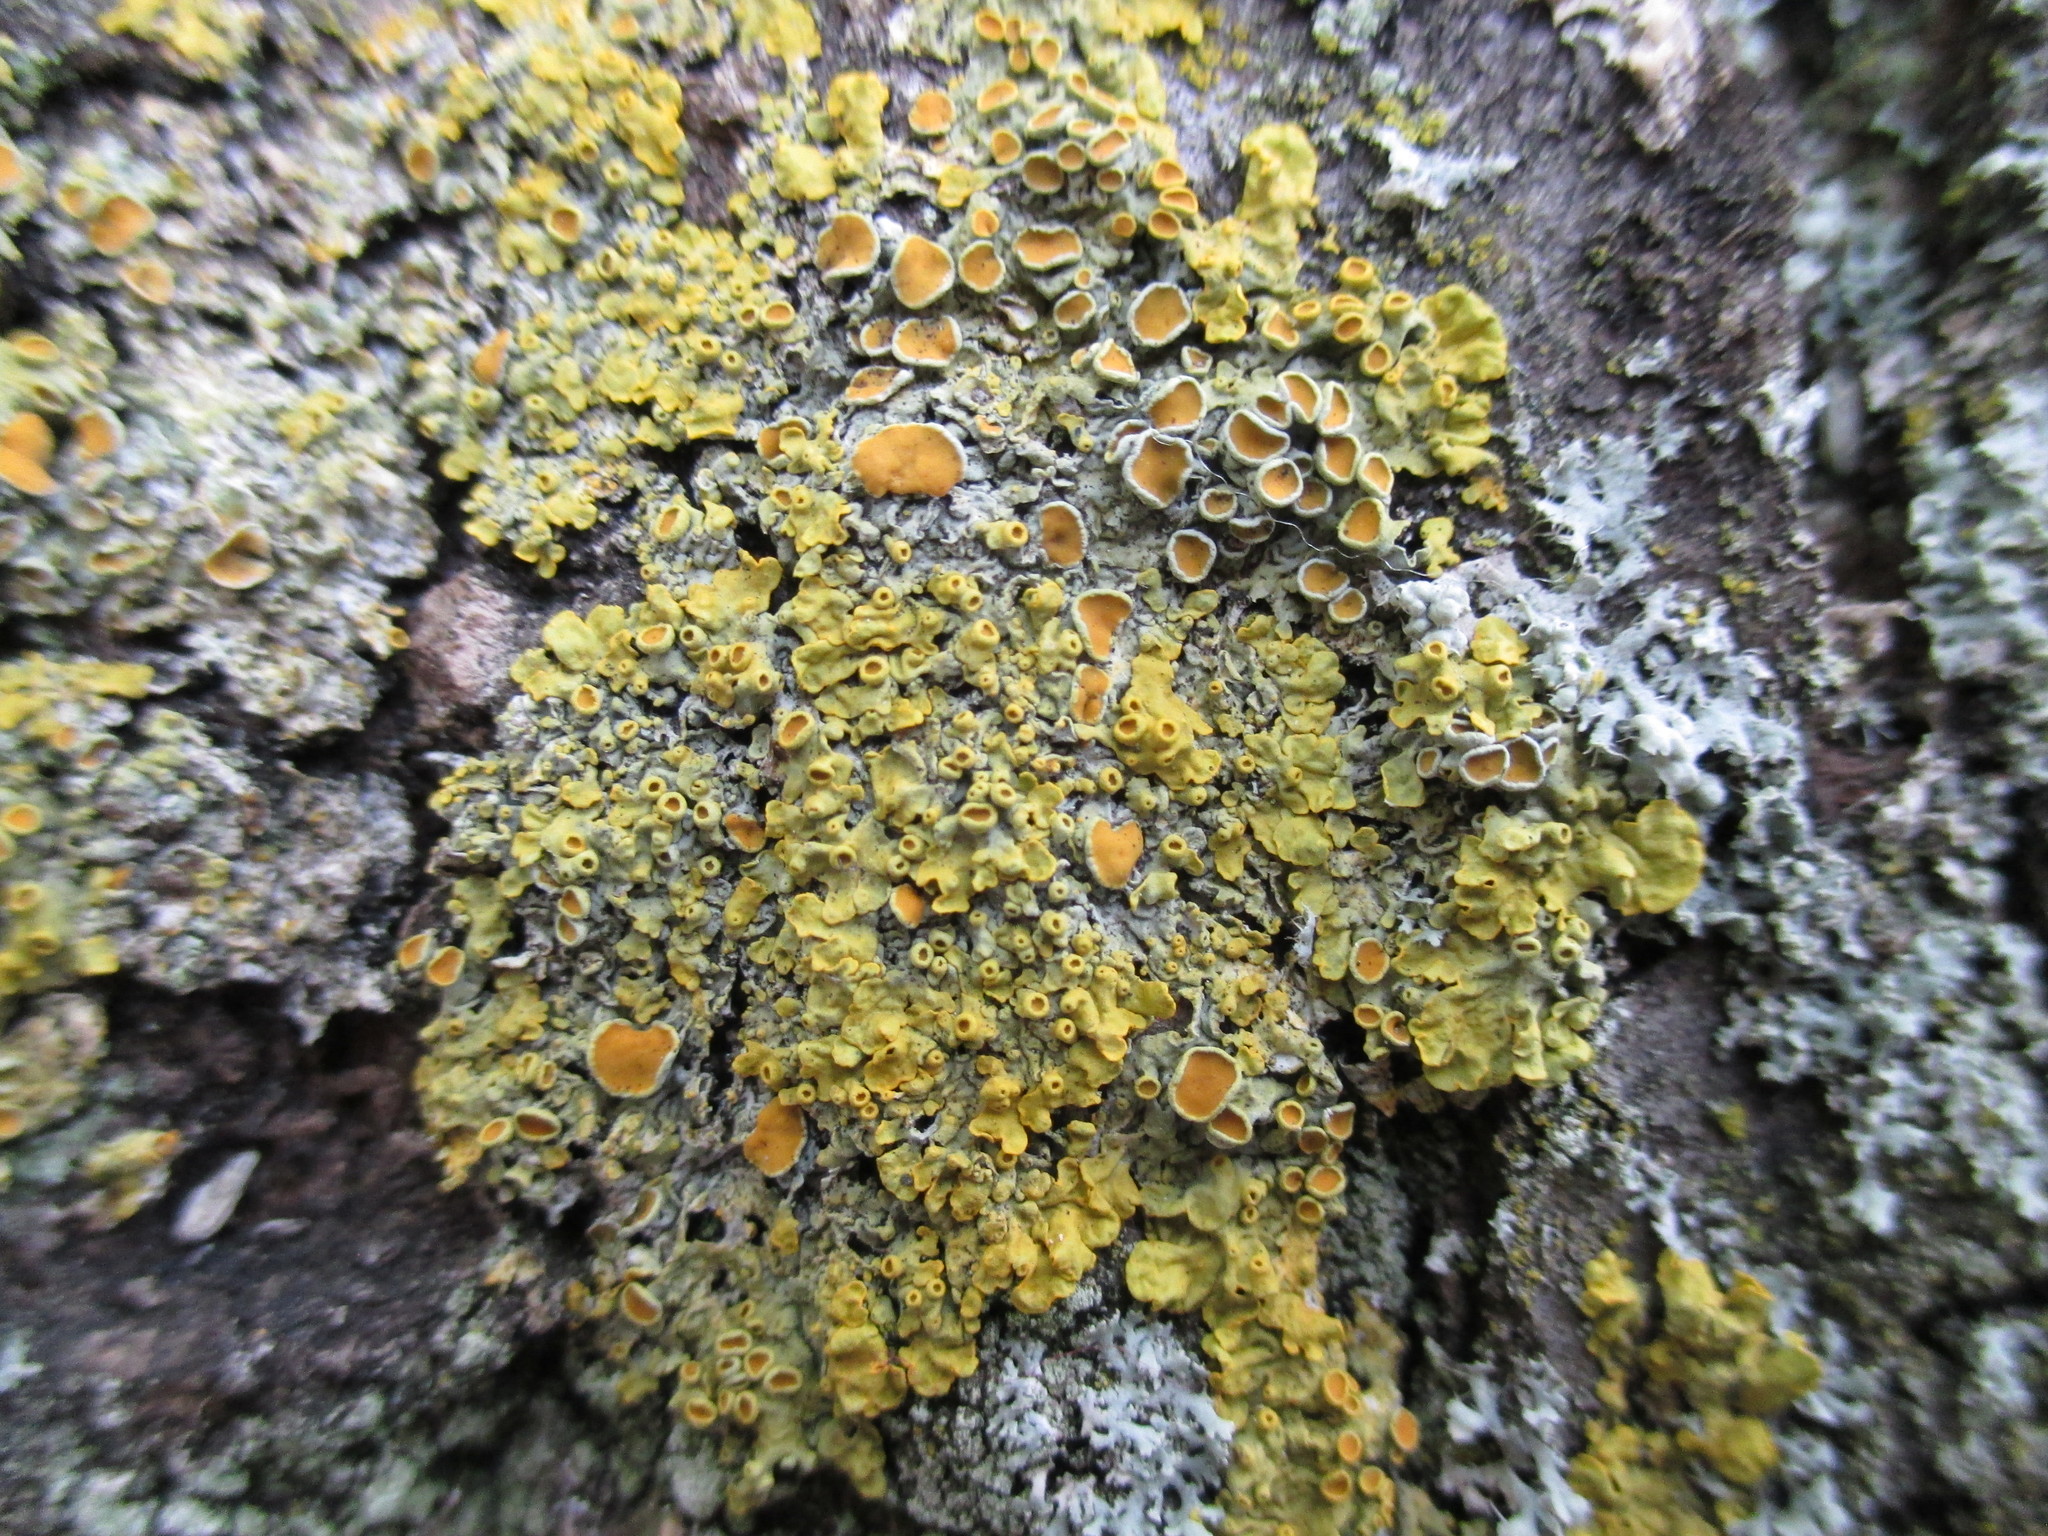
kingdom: Fungi
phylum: Ascomycota
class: Lecanoromycetes
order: Teloschistales
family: Teloschistaceae
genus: Xanthoria
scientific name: Xanthoria parietina
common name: Common orange lichen
